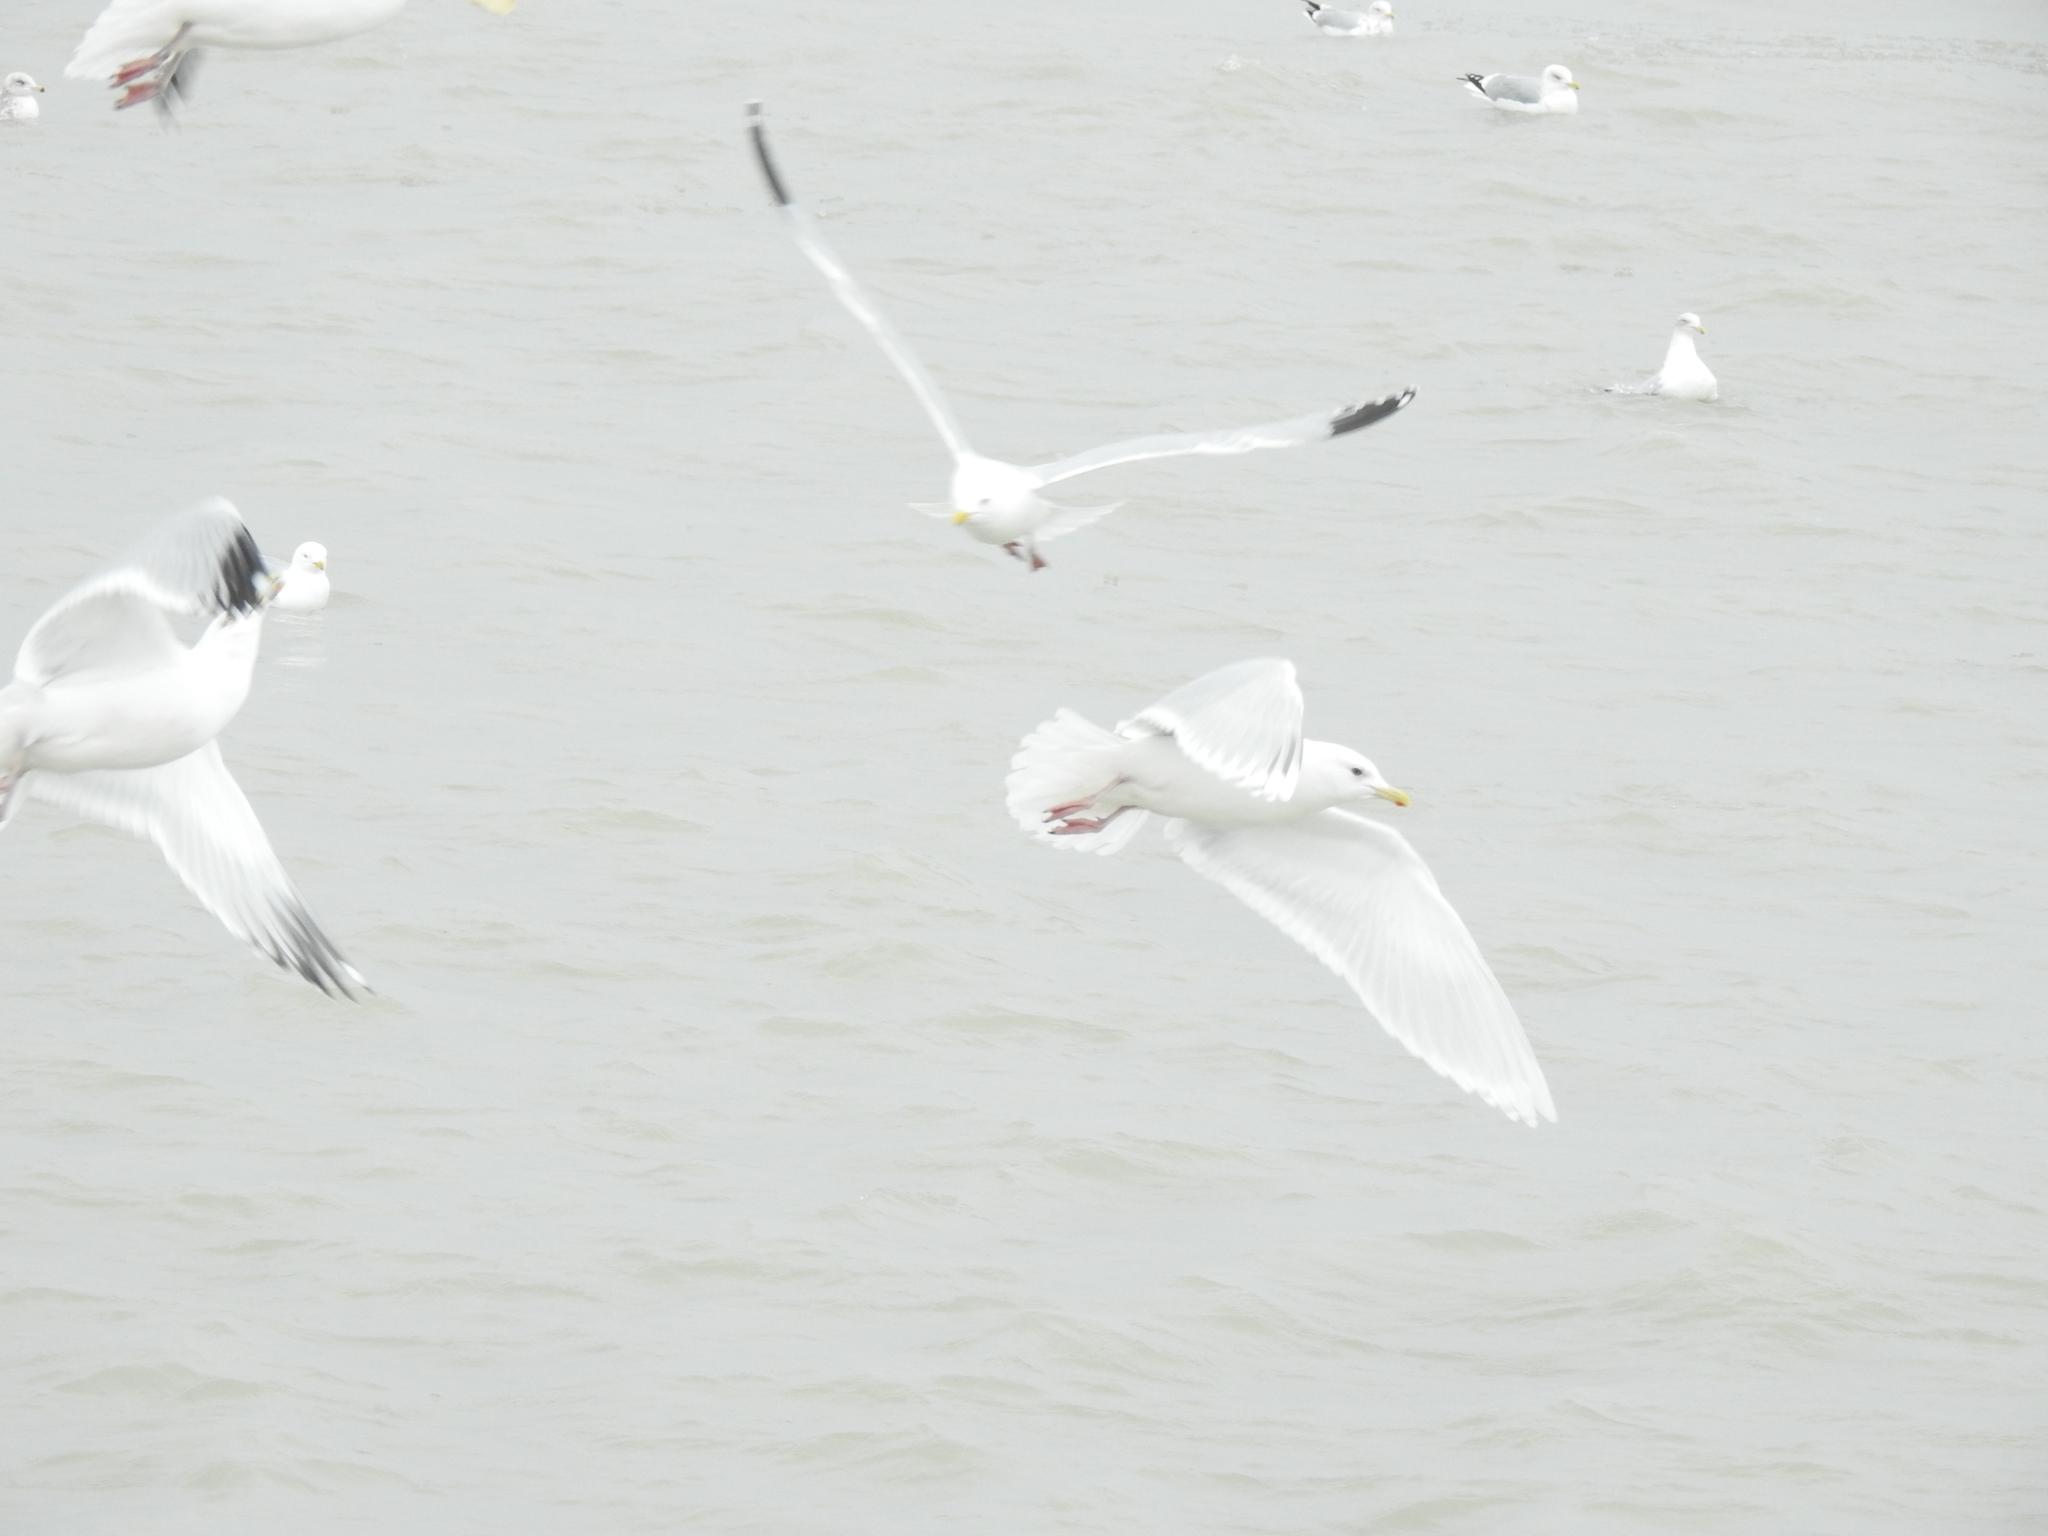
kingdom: Animalia
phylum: Chordata
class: Aves
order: Charadriiformes
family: Laridae
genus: Larus
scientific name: Larus glaucoides
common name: Iceland gull
